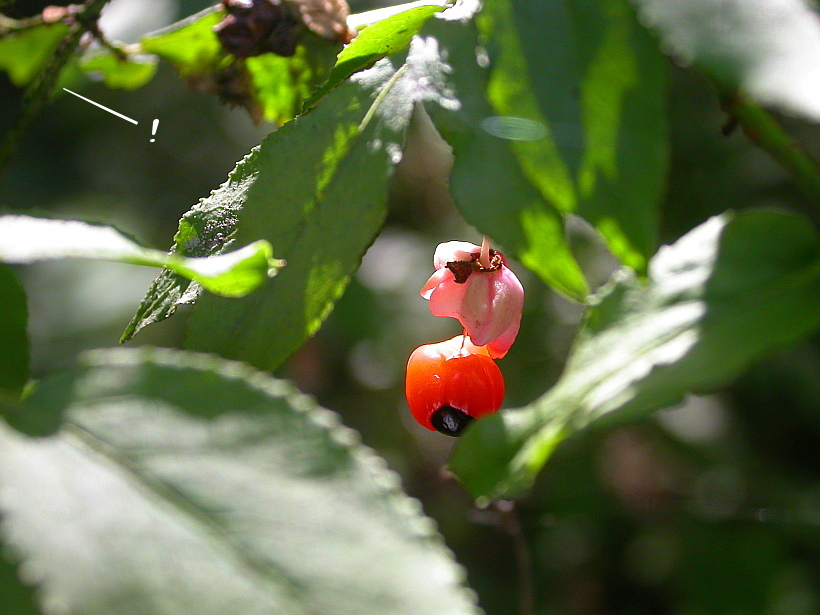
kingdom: Plantae
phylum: Tracheophyta
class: Magnoliopsida
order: Celastrales
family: Celastraceae
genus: Euonymus
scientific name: Euonymus verrucosus
